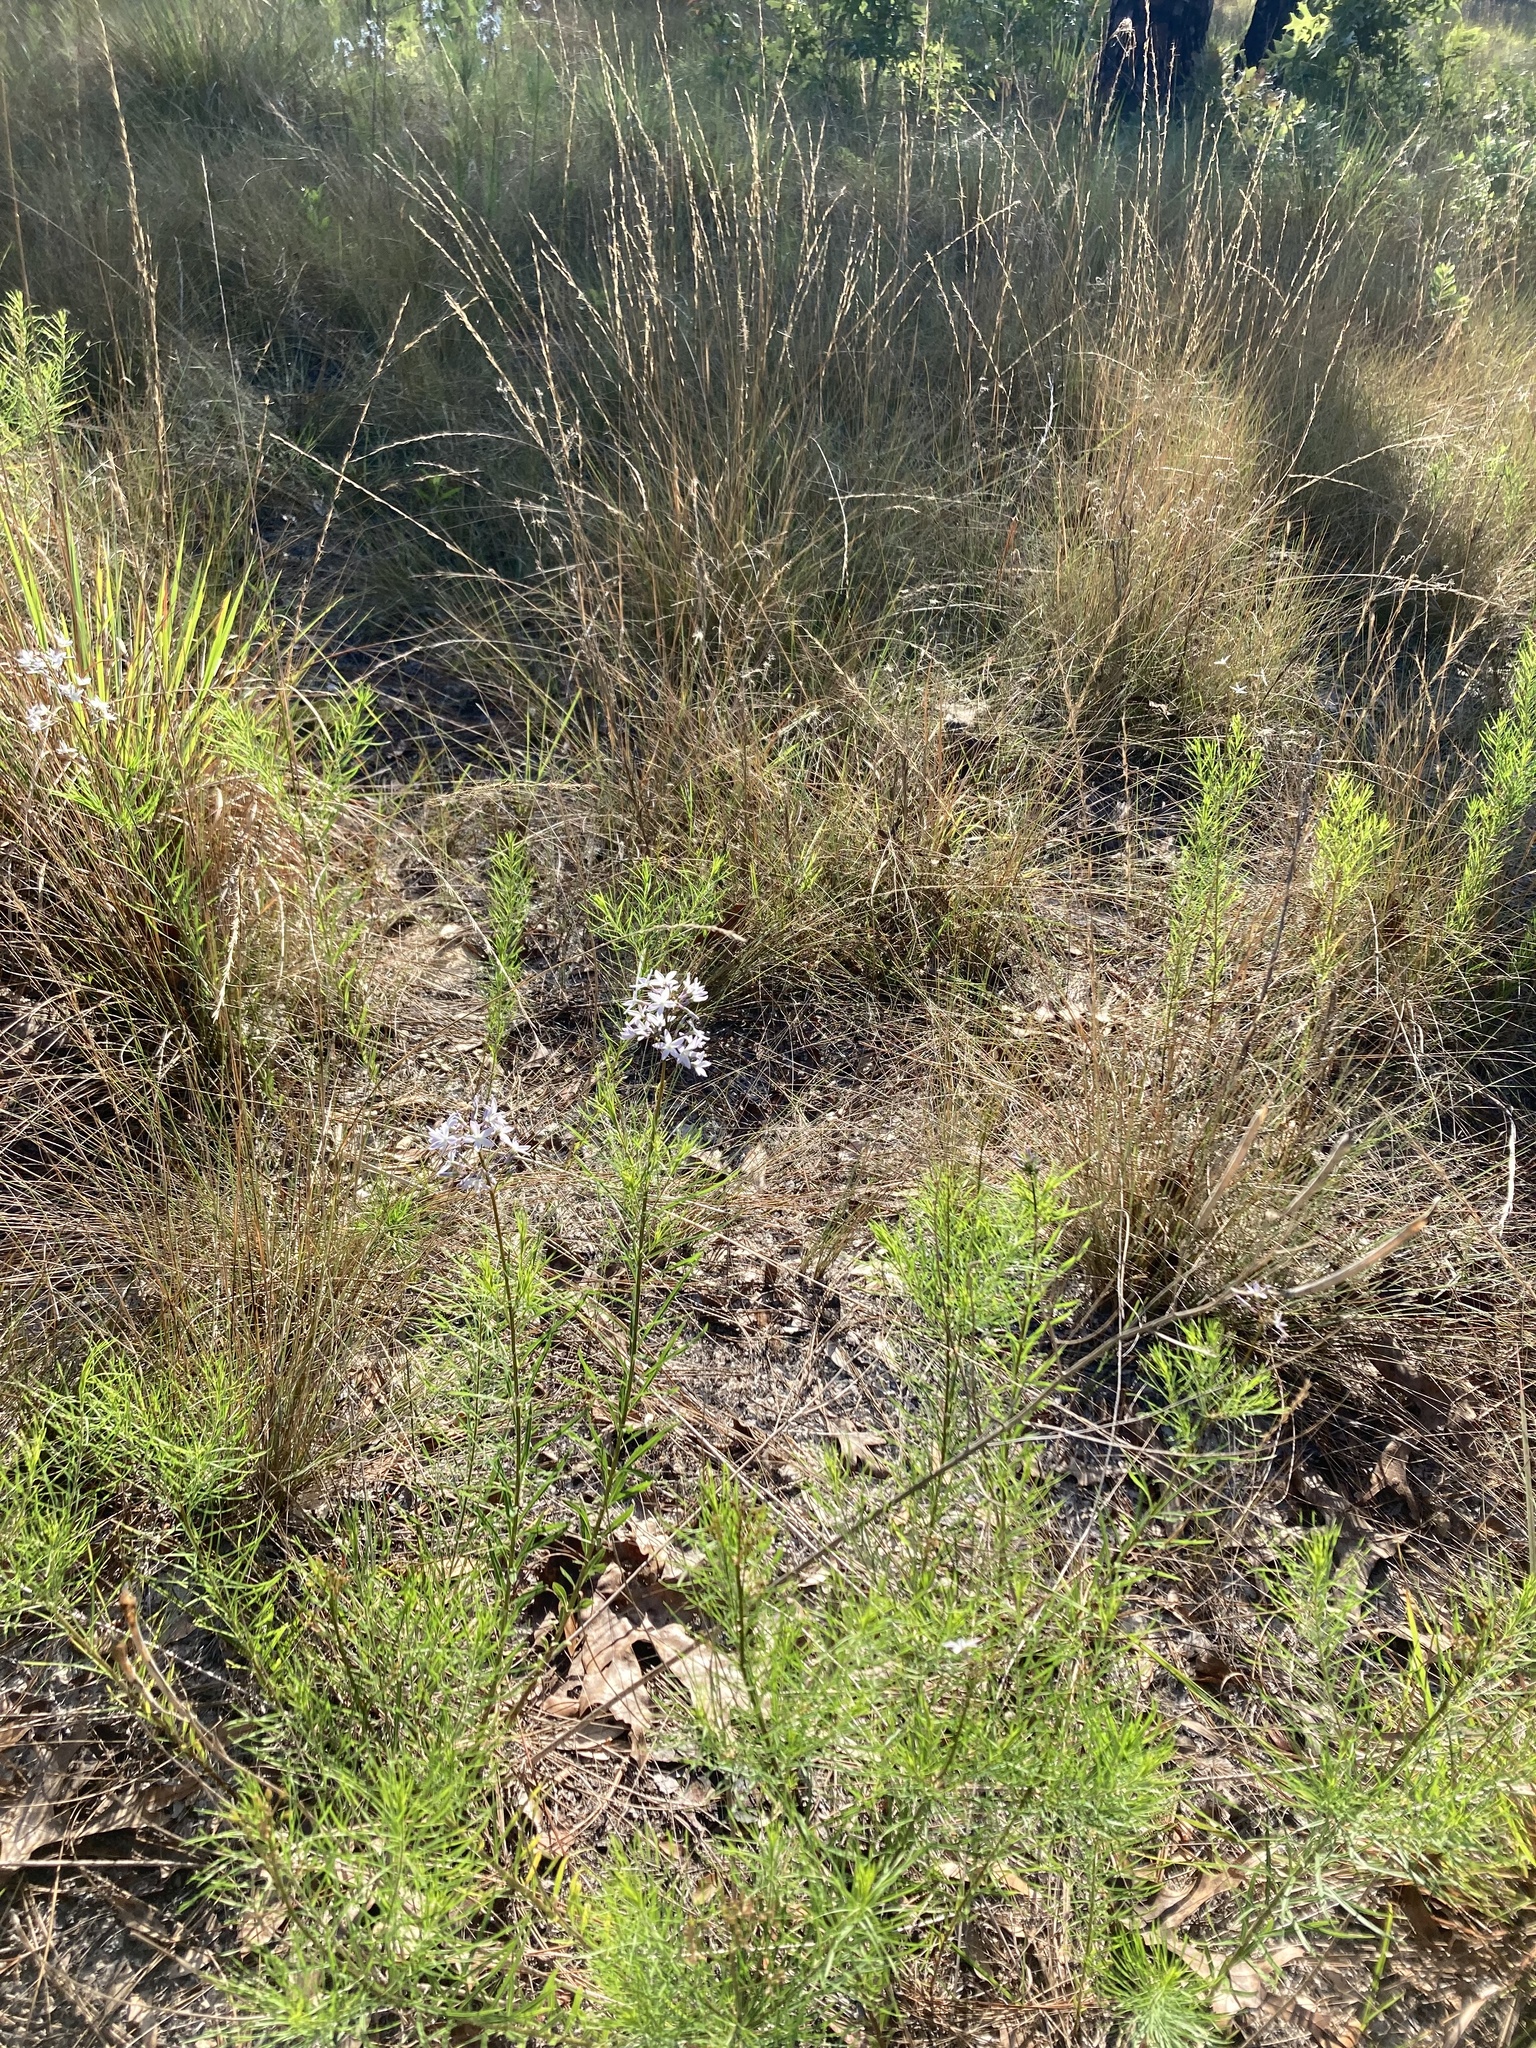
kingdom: Plantae
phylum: Tracheophyta
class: Magnoliopsida
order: Gentianales
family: Apocynaceae
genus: Amsonia
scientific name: Amsonia ciliata
